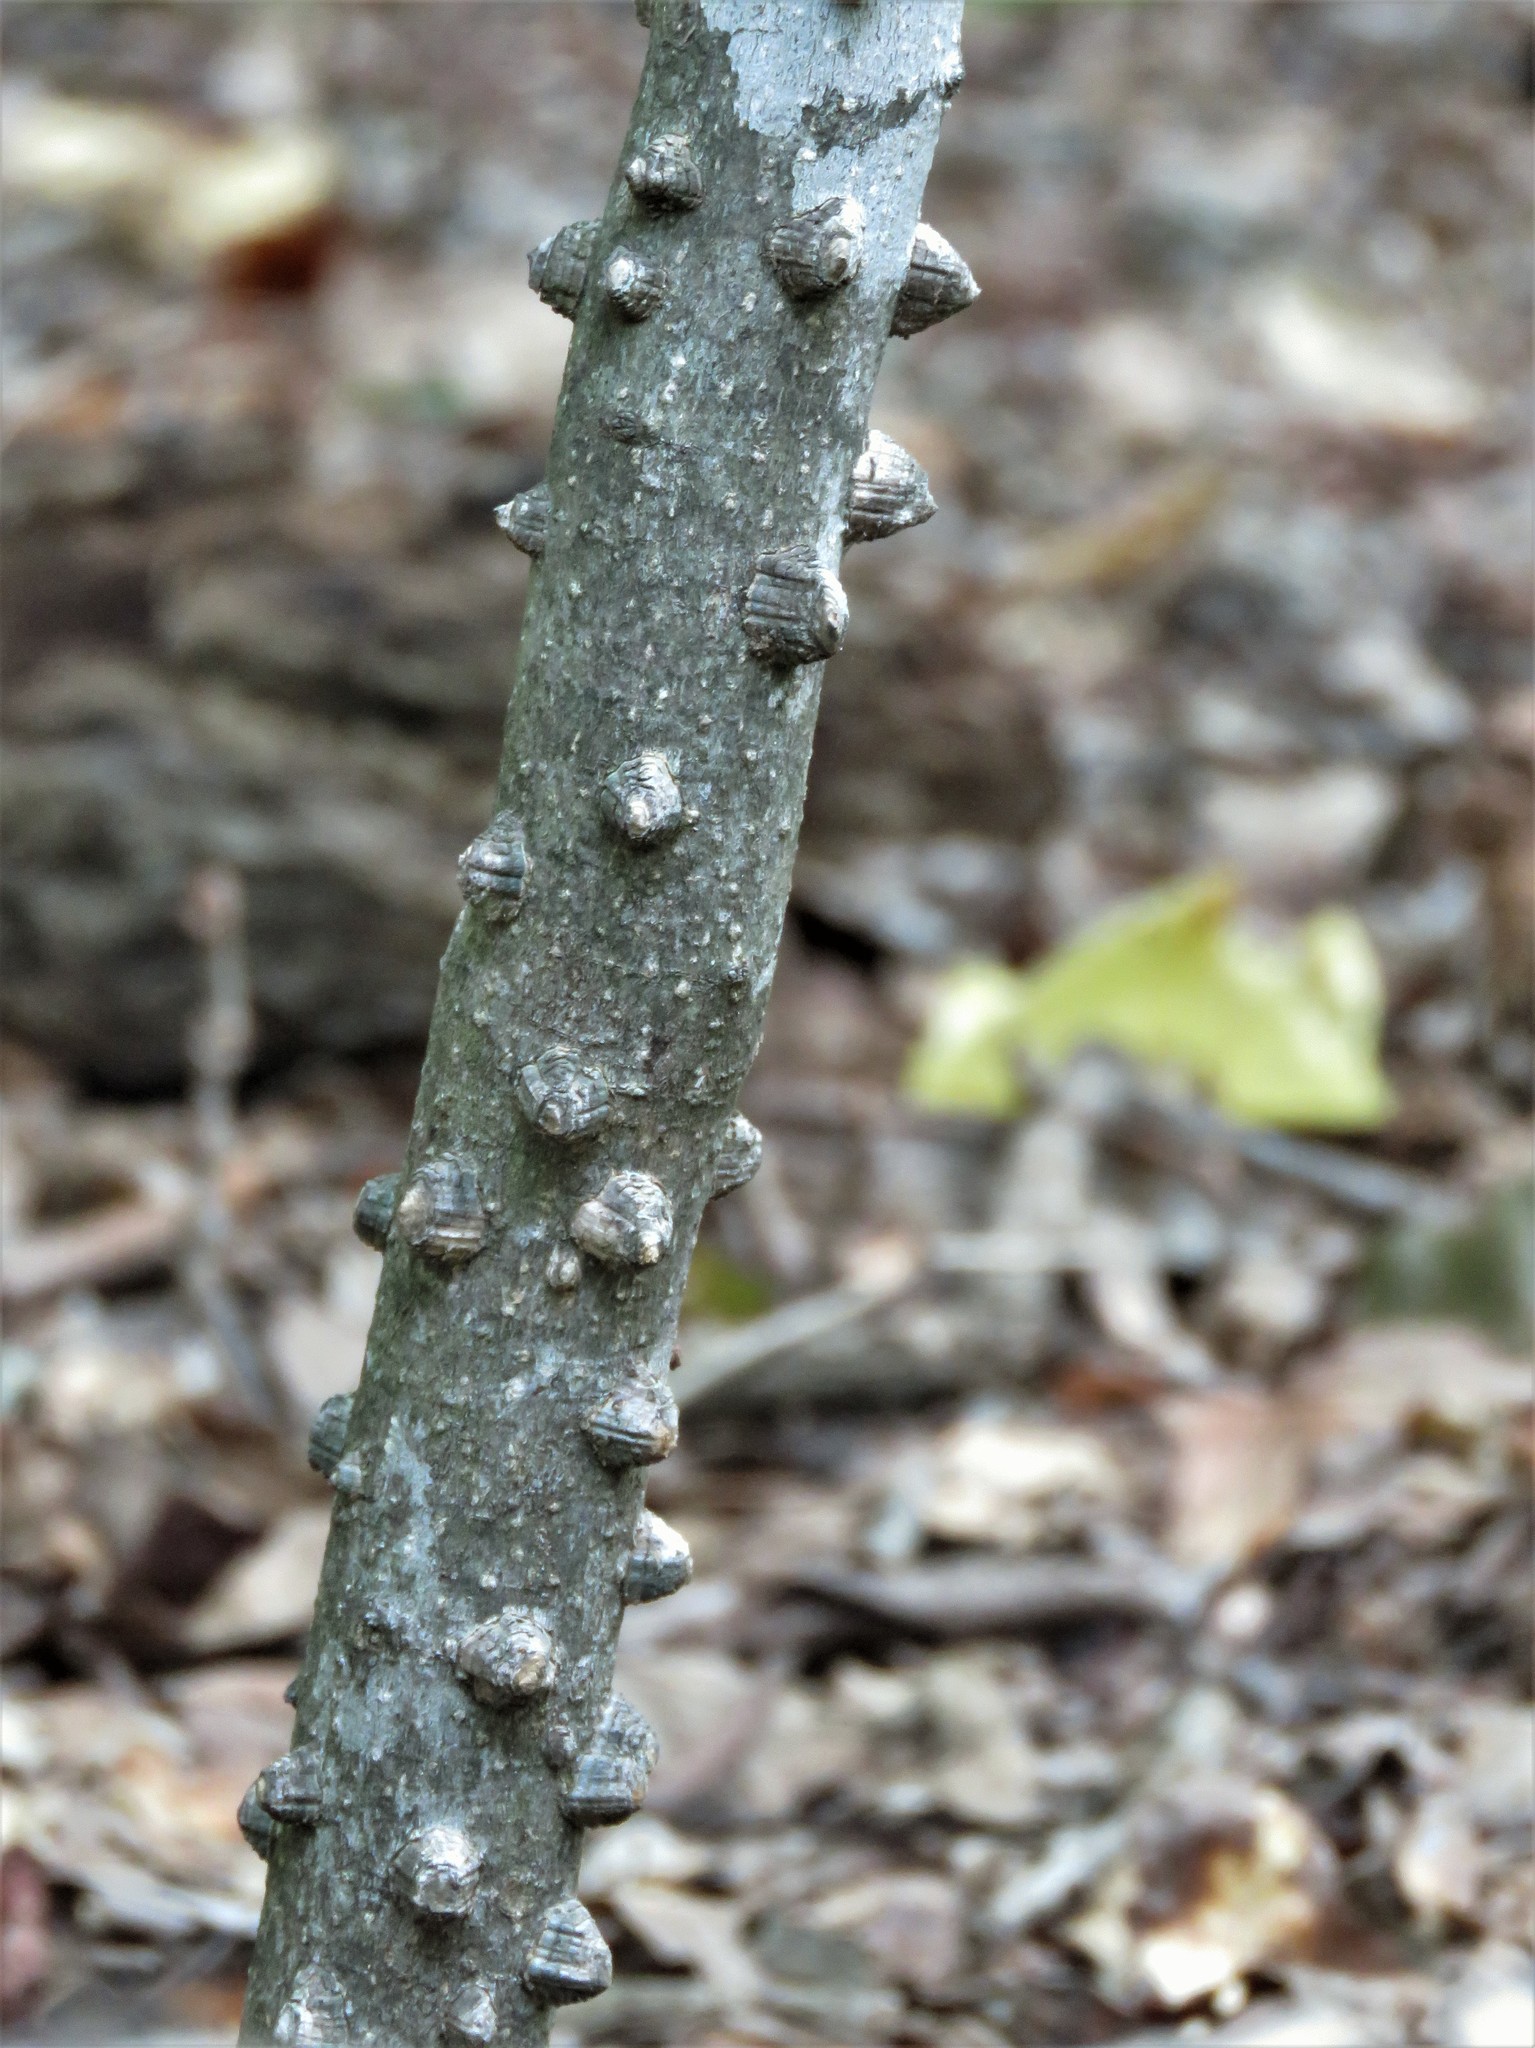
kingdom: Plantae
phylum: Tracheophyta
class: Magnoliopsida
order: Sapindales
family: Rutaceae
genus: Zanthoxylum
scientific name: Zanthoxylum clava-herculis
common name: Hercules'-club
